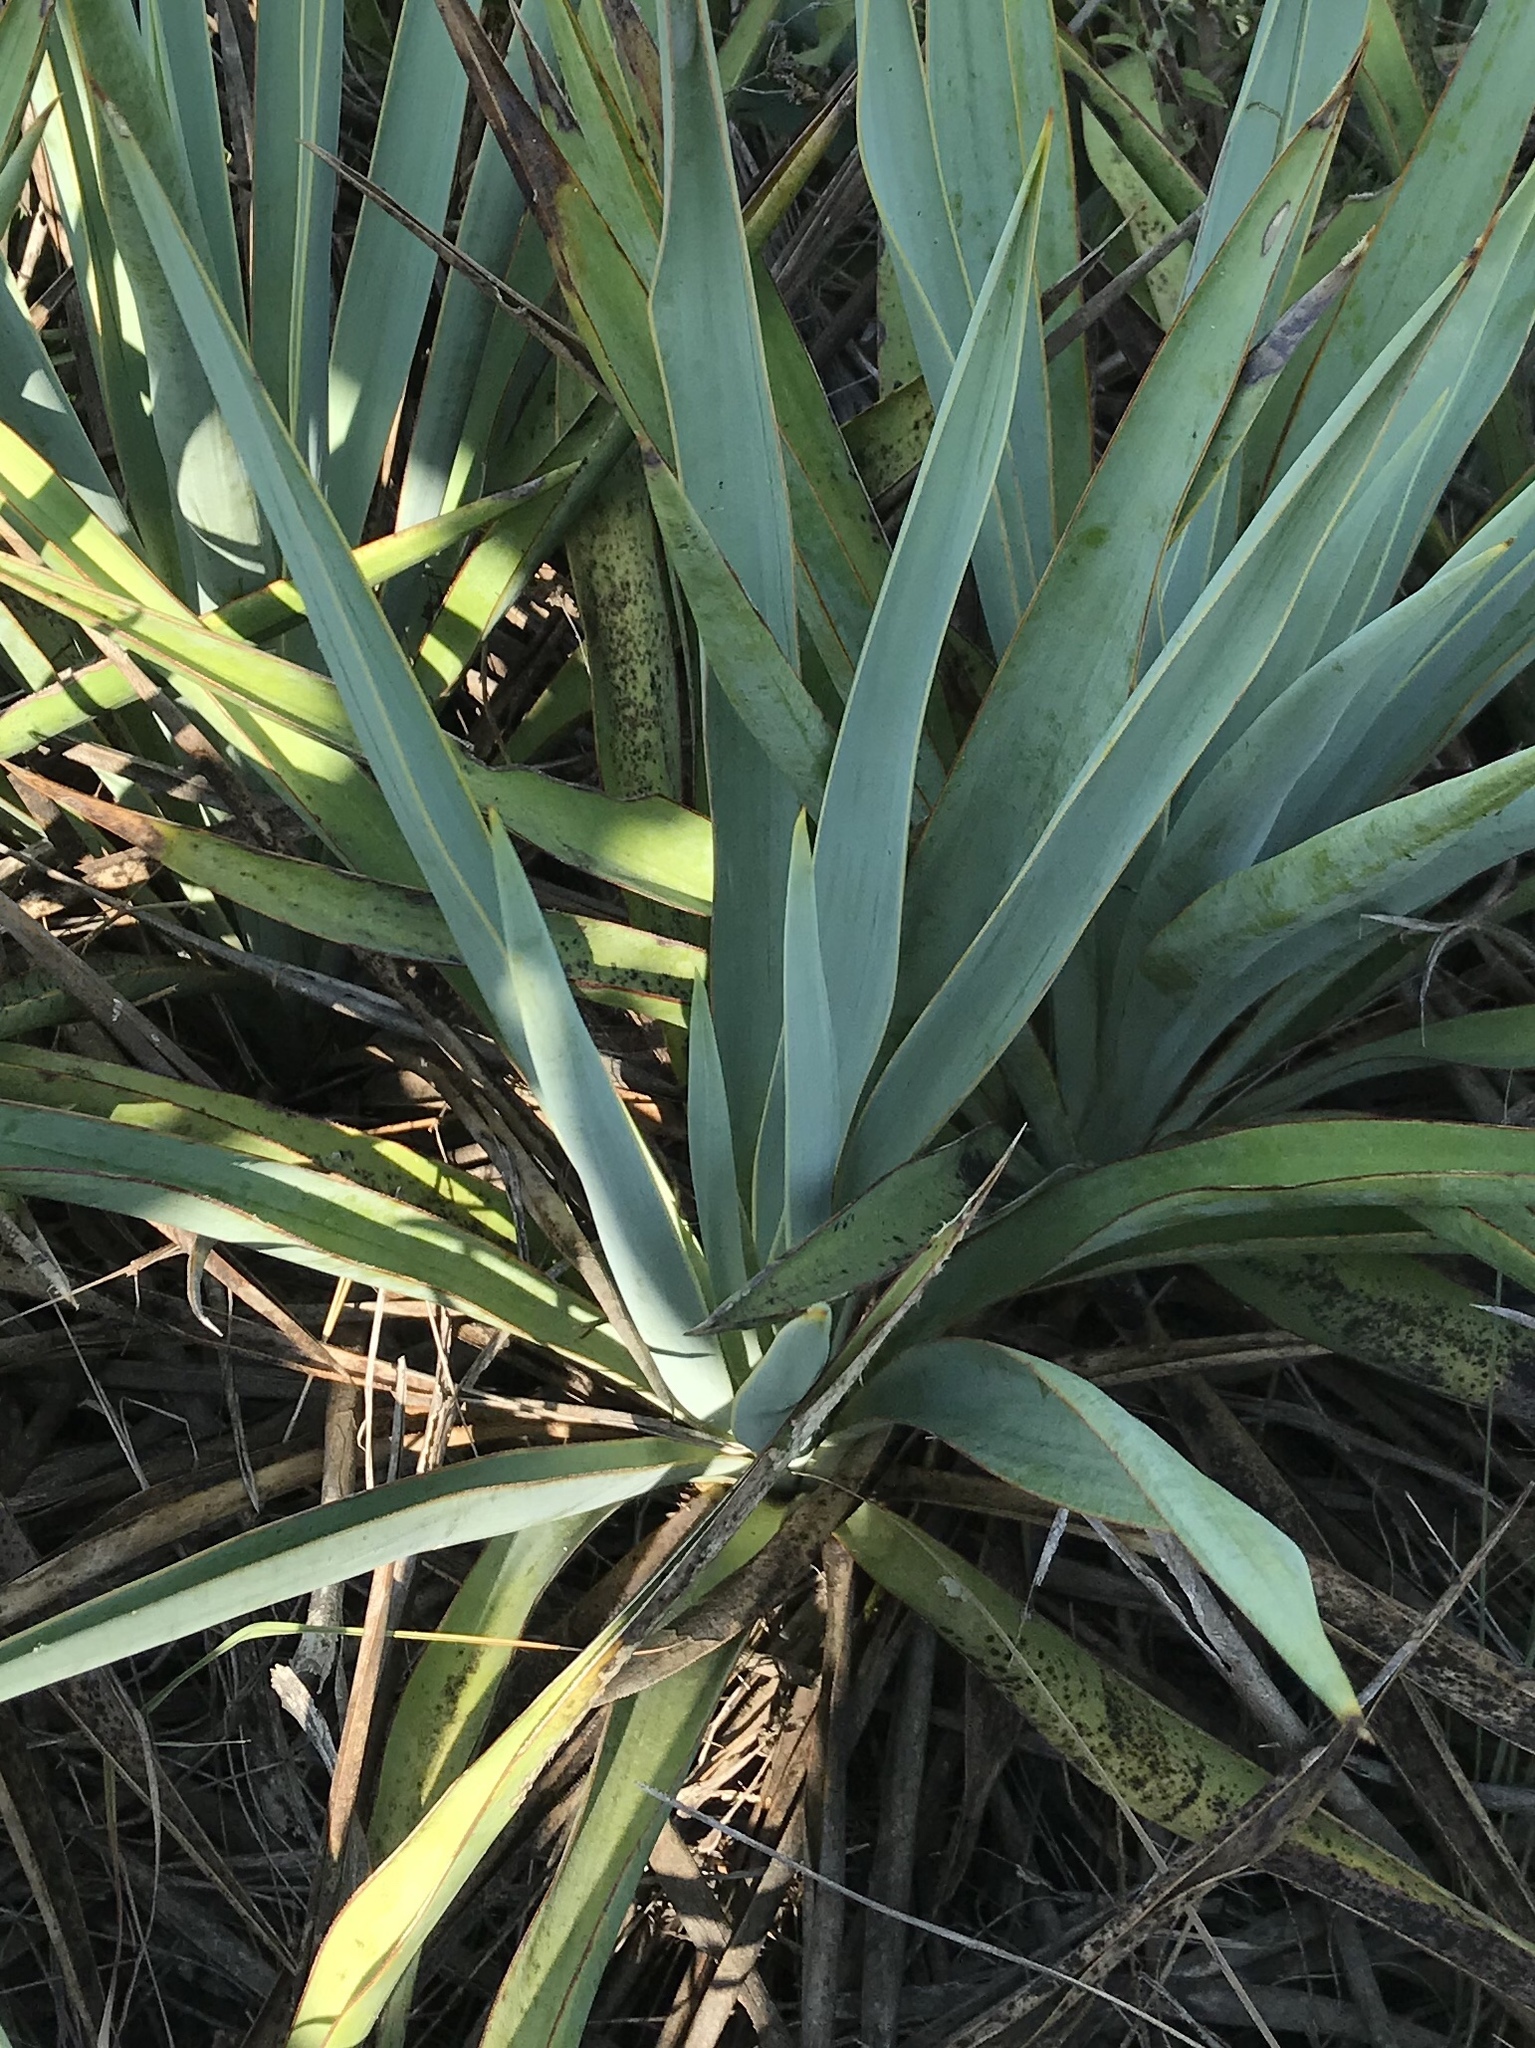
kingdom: Plantae
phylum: Tracheophyta
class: Liliopsida
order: Asparagales
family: Asparagaceae
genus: Yucca
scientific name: Yucca pallida
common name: Pale leaf yucca
